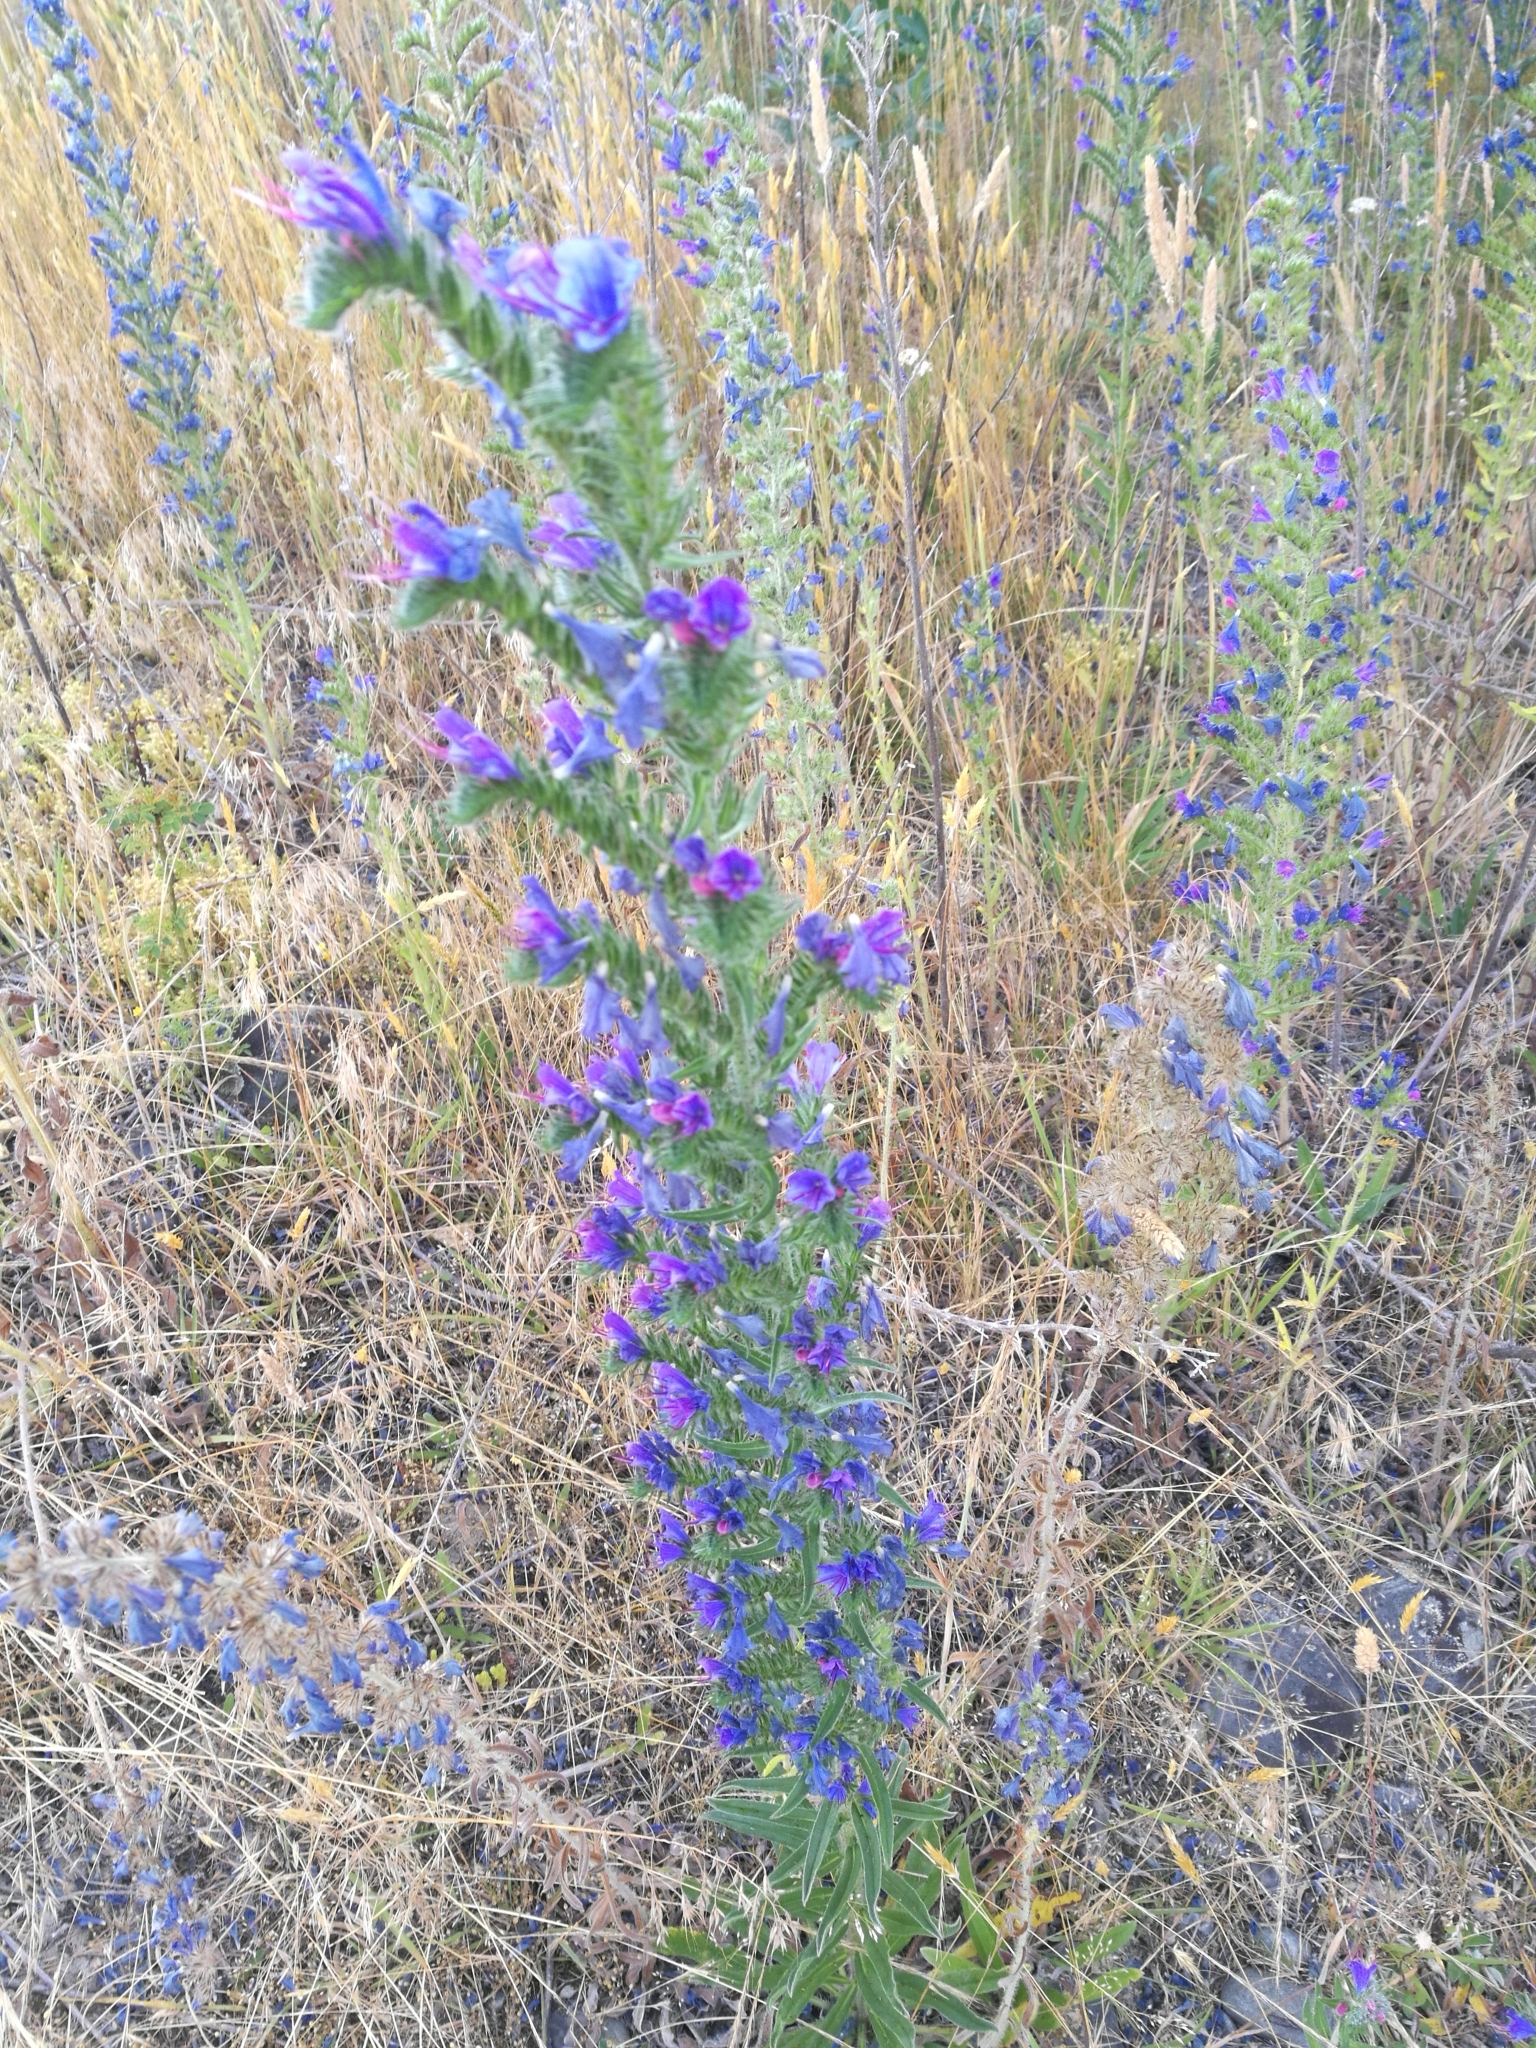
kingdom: Plantae
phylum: Tracheophyta
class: Magnoliopsida
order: Boraginales
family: Boraginaceae
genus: Echium
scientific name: Echium vulgare
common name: Common viper's bugloss
